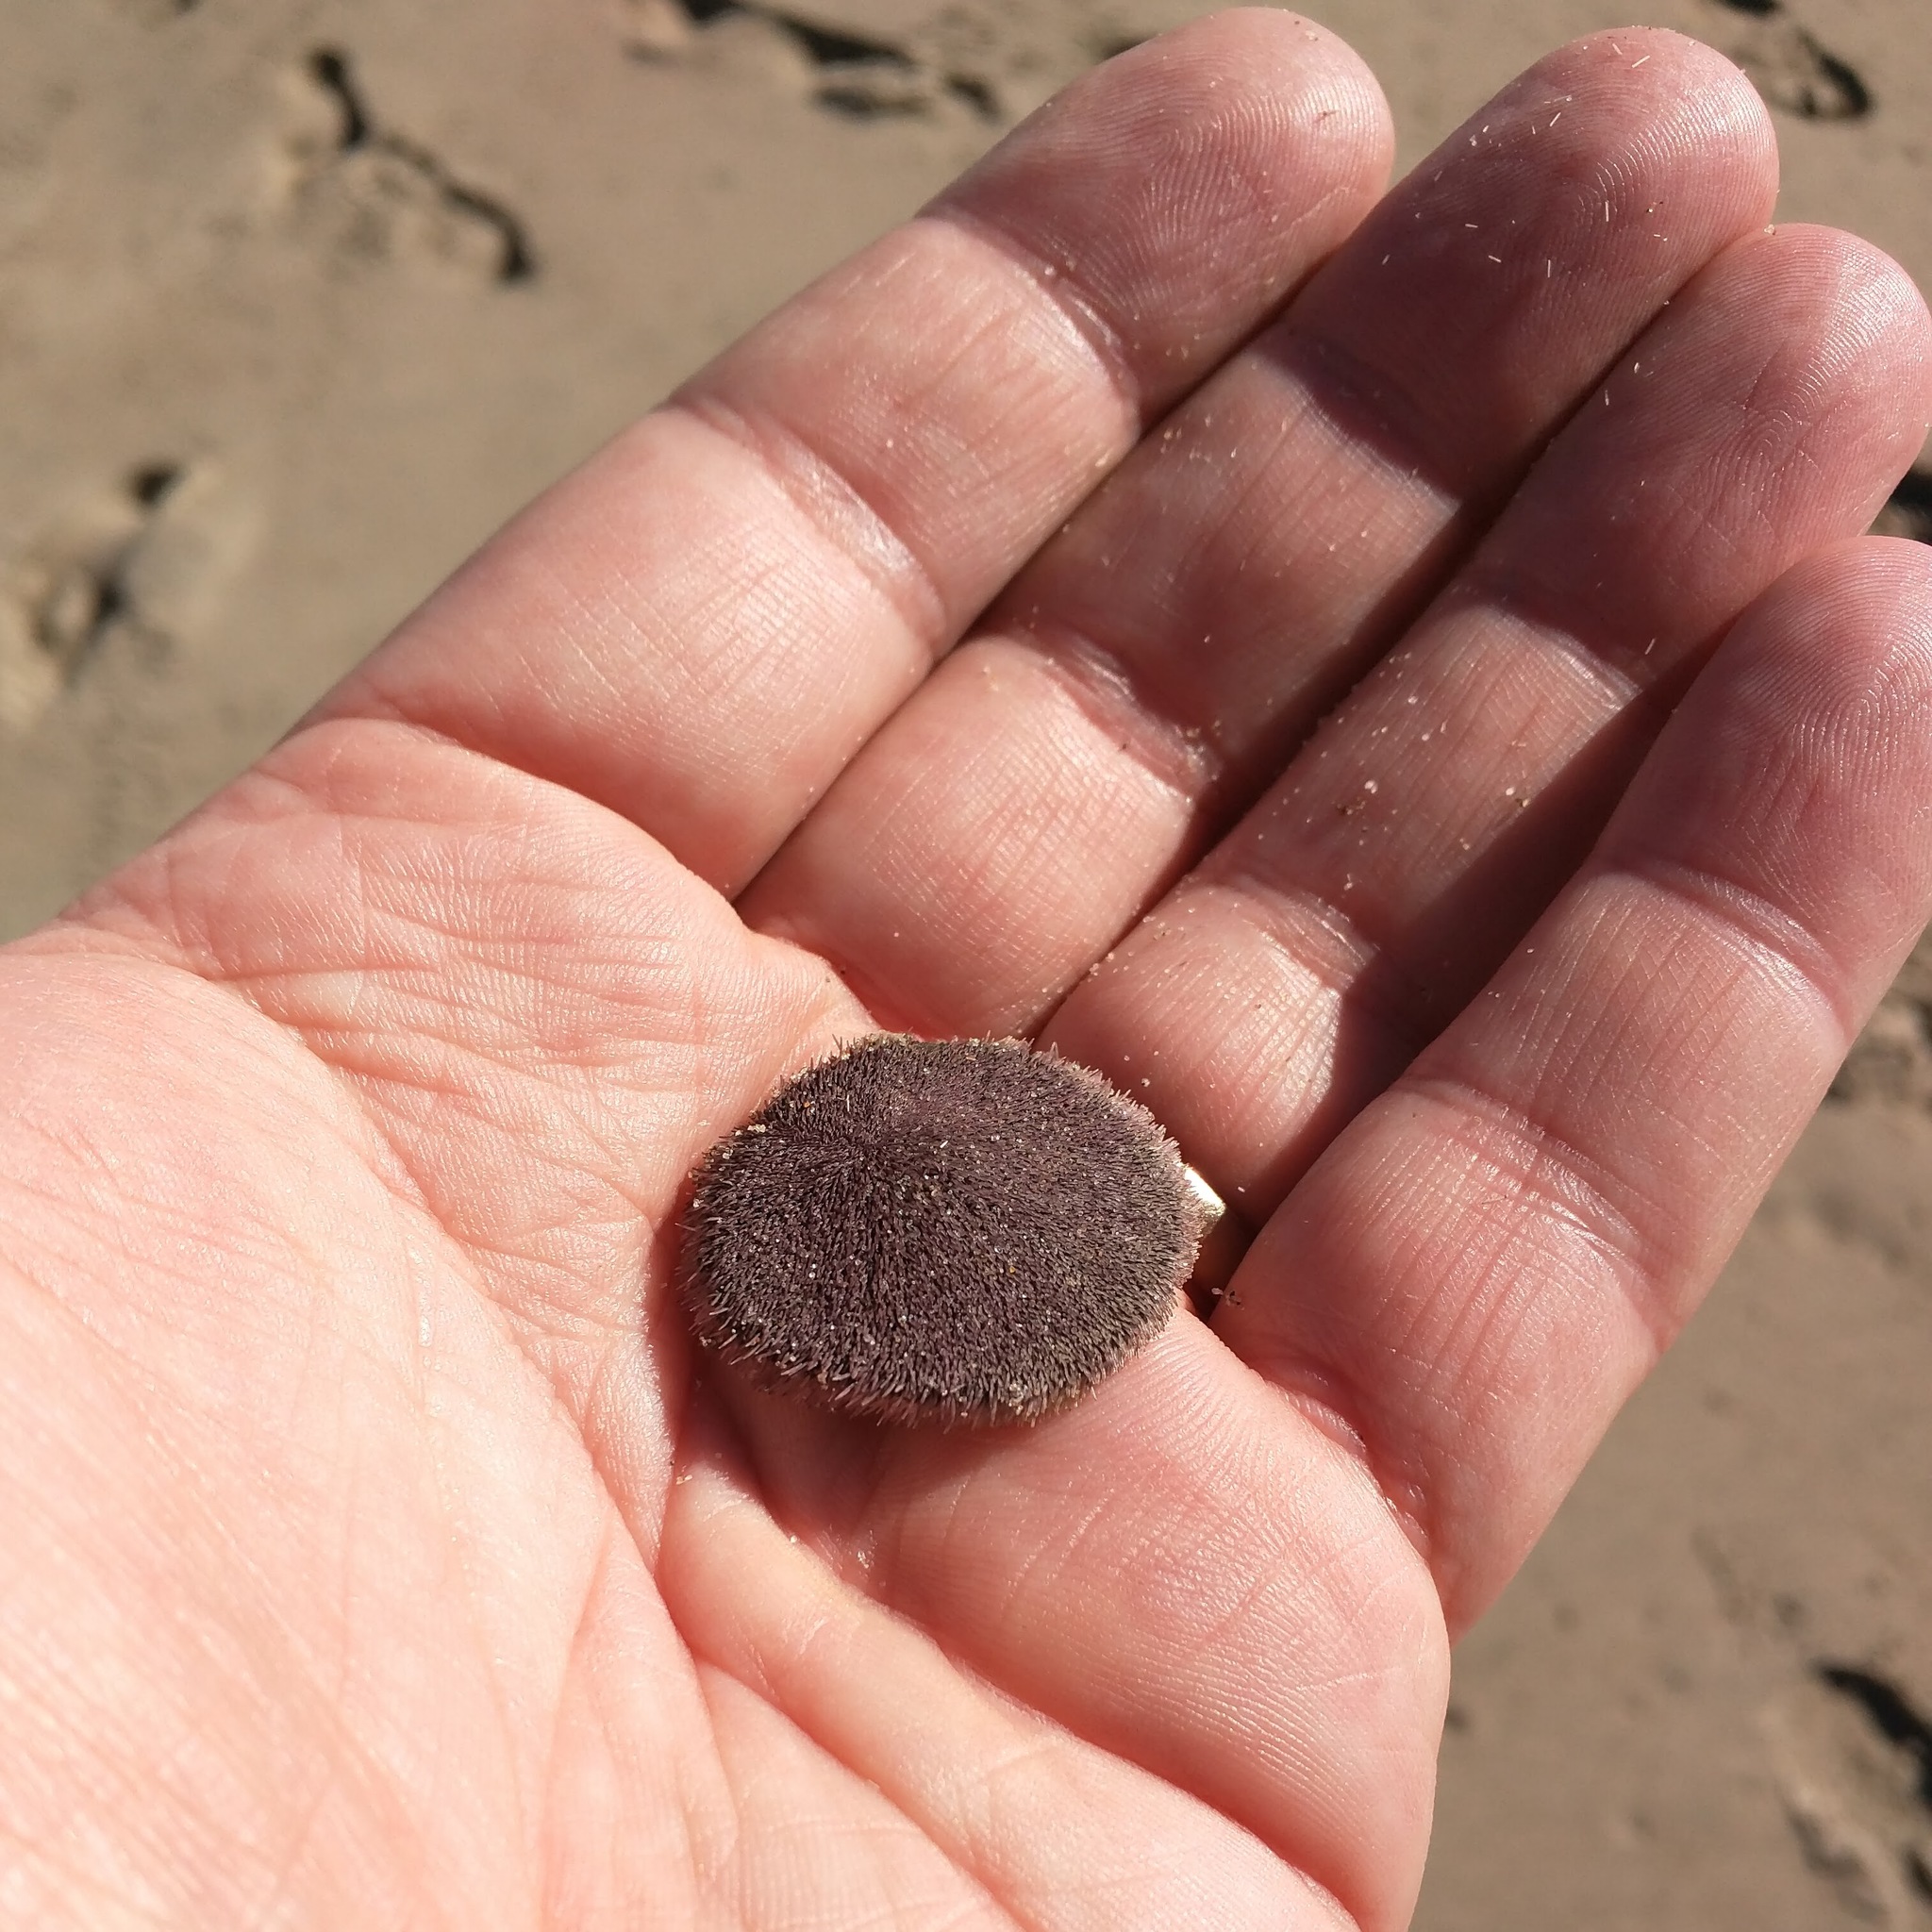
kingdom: Animalia
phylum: Echinodermata
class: Echinoidea
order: Echinolampadacea
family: Dendrasteridae
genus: Dendraster
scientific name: Dendraster excentricus
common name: Eccentric sand dollar sea urchin
